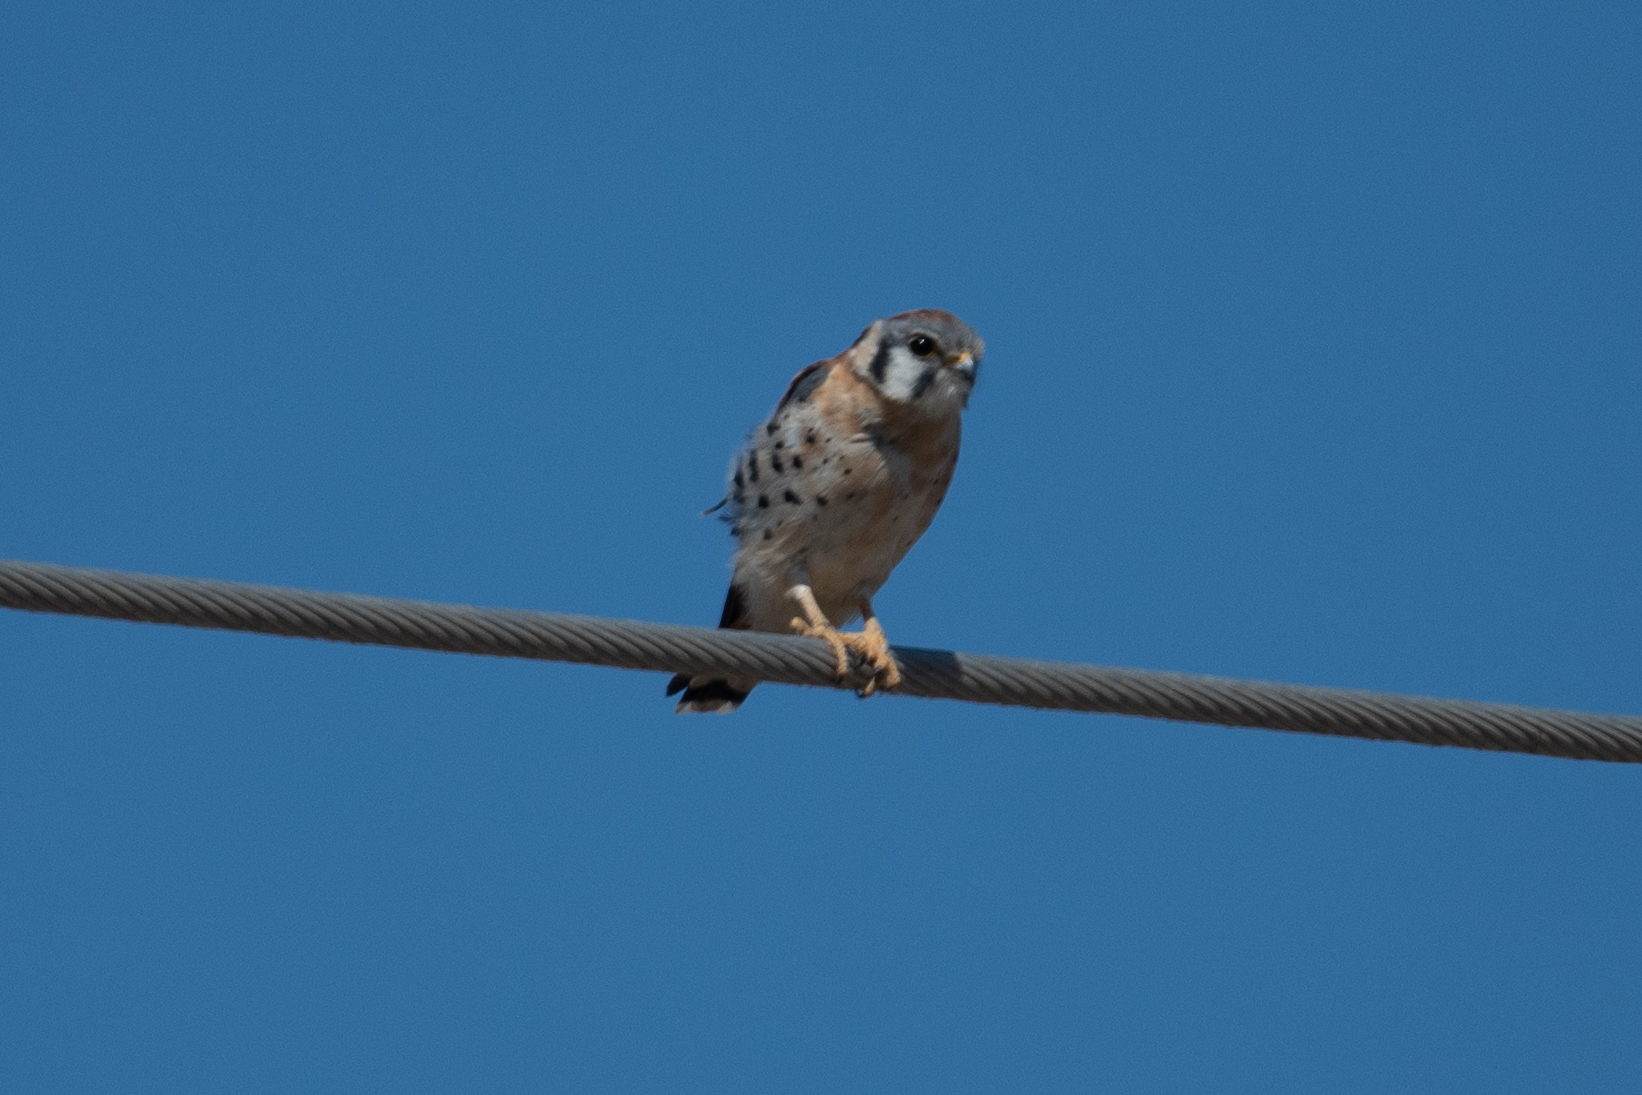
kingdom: Animalia
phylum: Chordata
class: Aves
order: Falconiformes
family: Falconidae
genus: Falco
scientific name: Falco sparverius
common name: American kestrel
